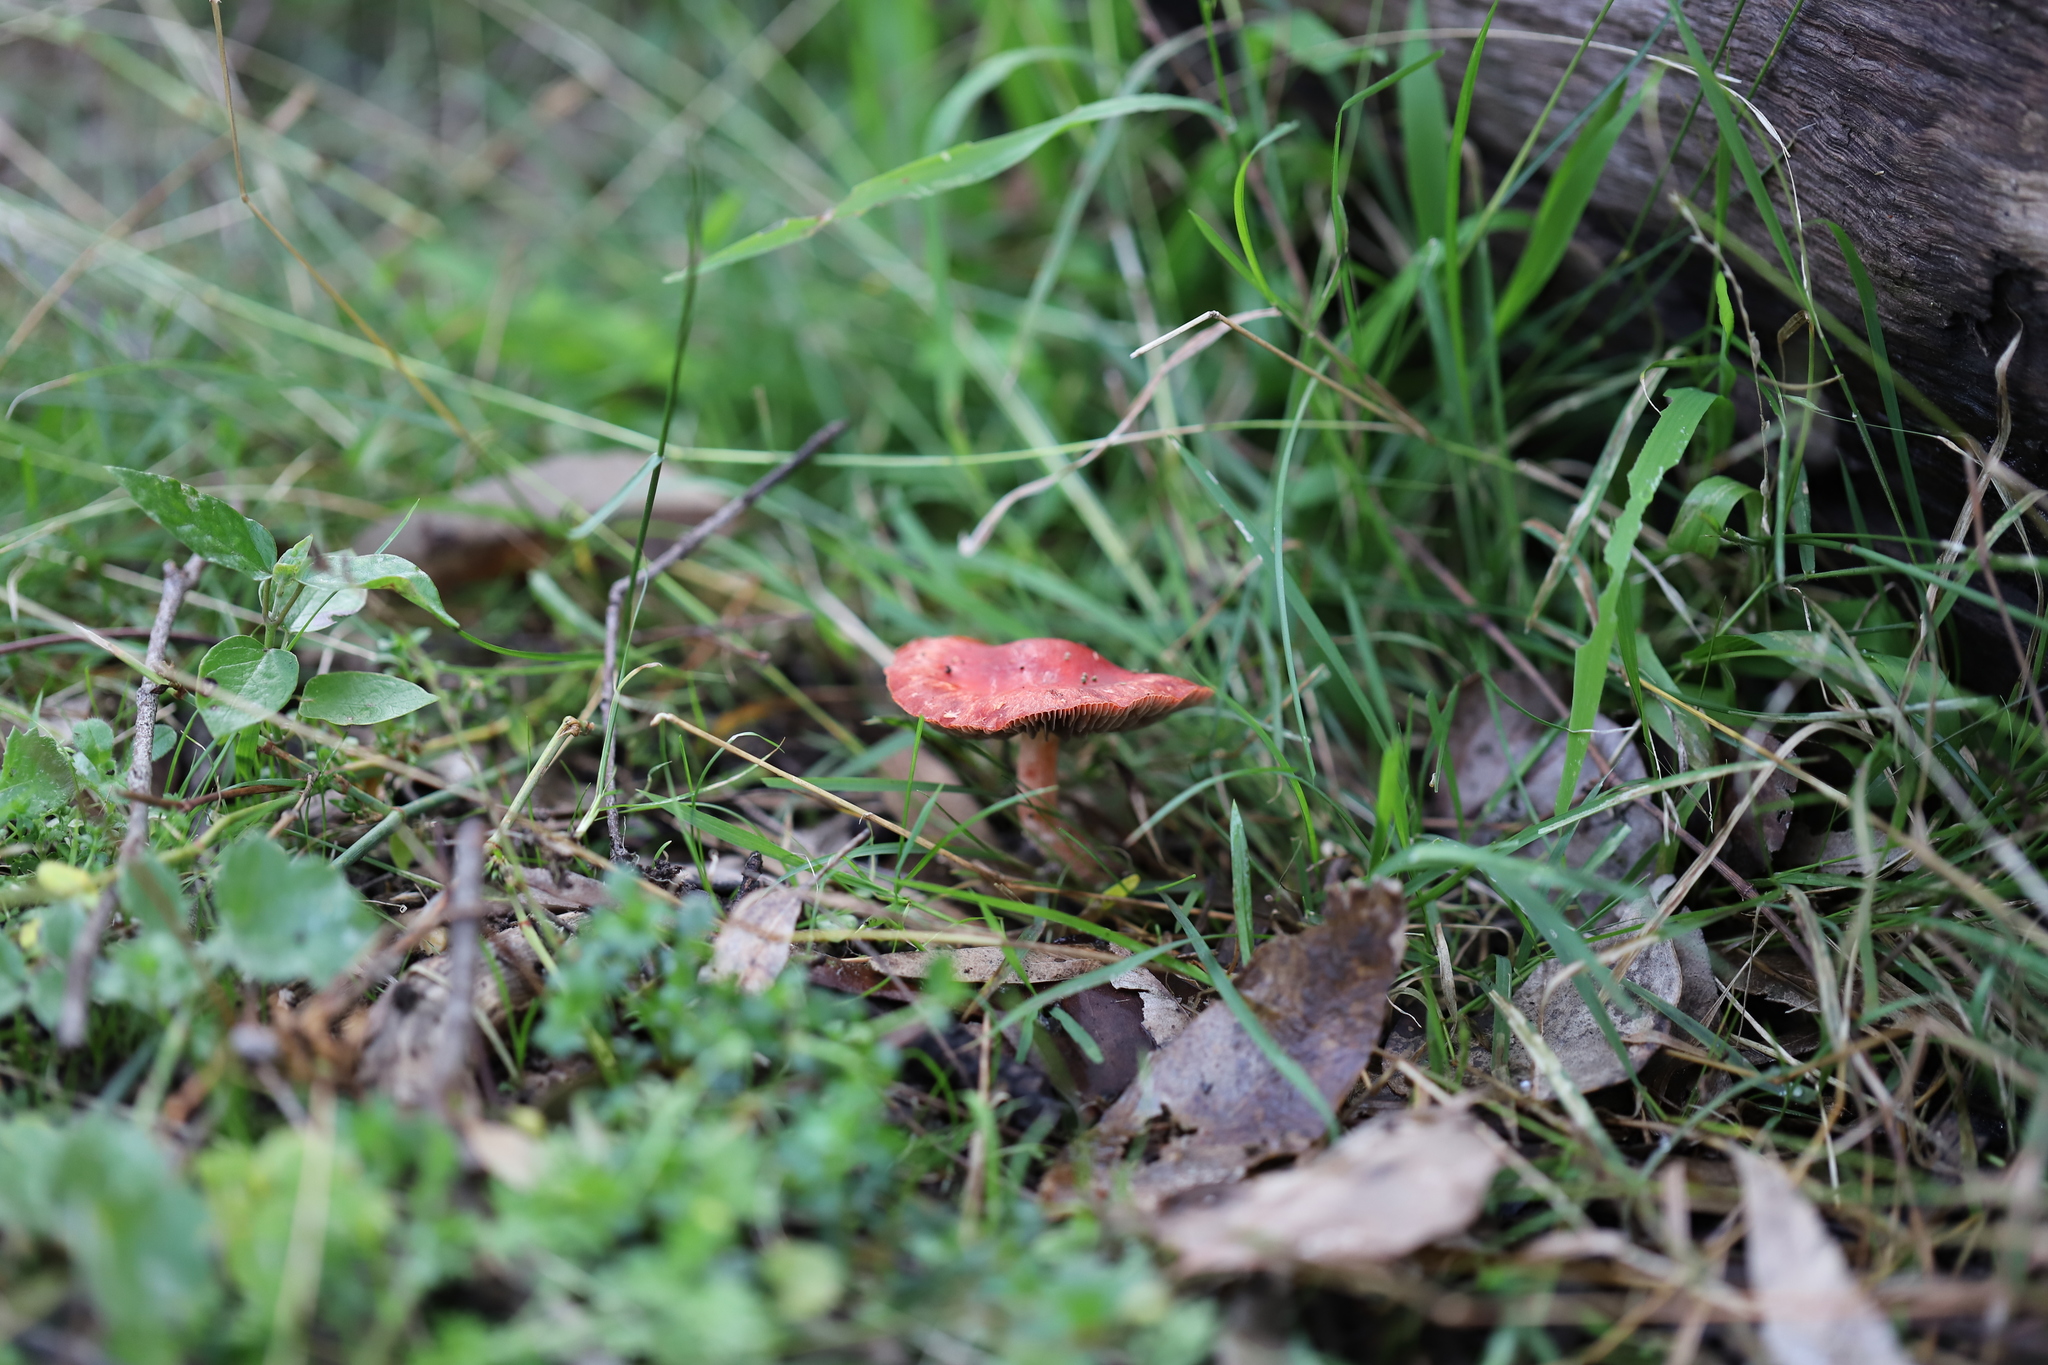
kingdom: Fungi
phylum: Basidiomycota
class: Agaricomycetes
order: Agaricales
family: Strophariaceae
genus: Leratiomyces
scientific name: Leratiomyces ceres
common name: Redlead roundhead
